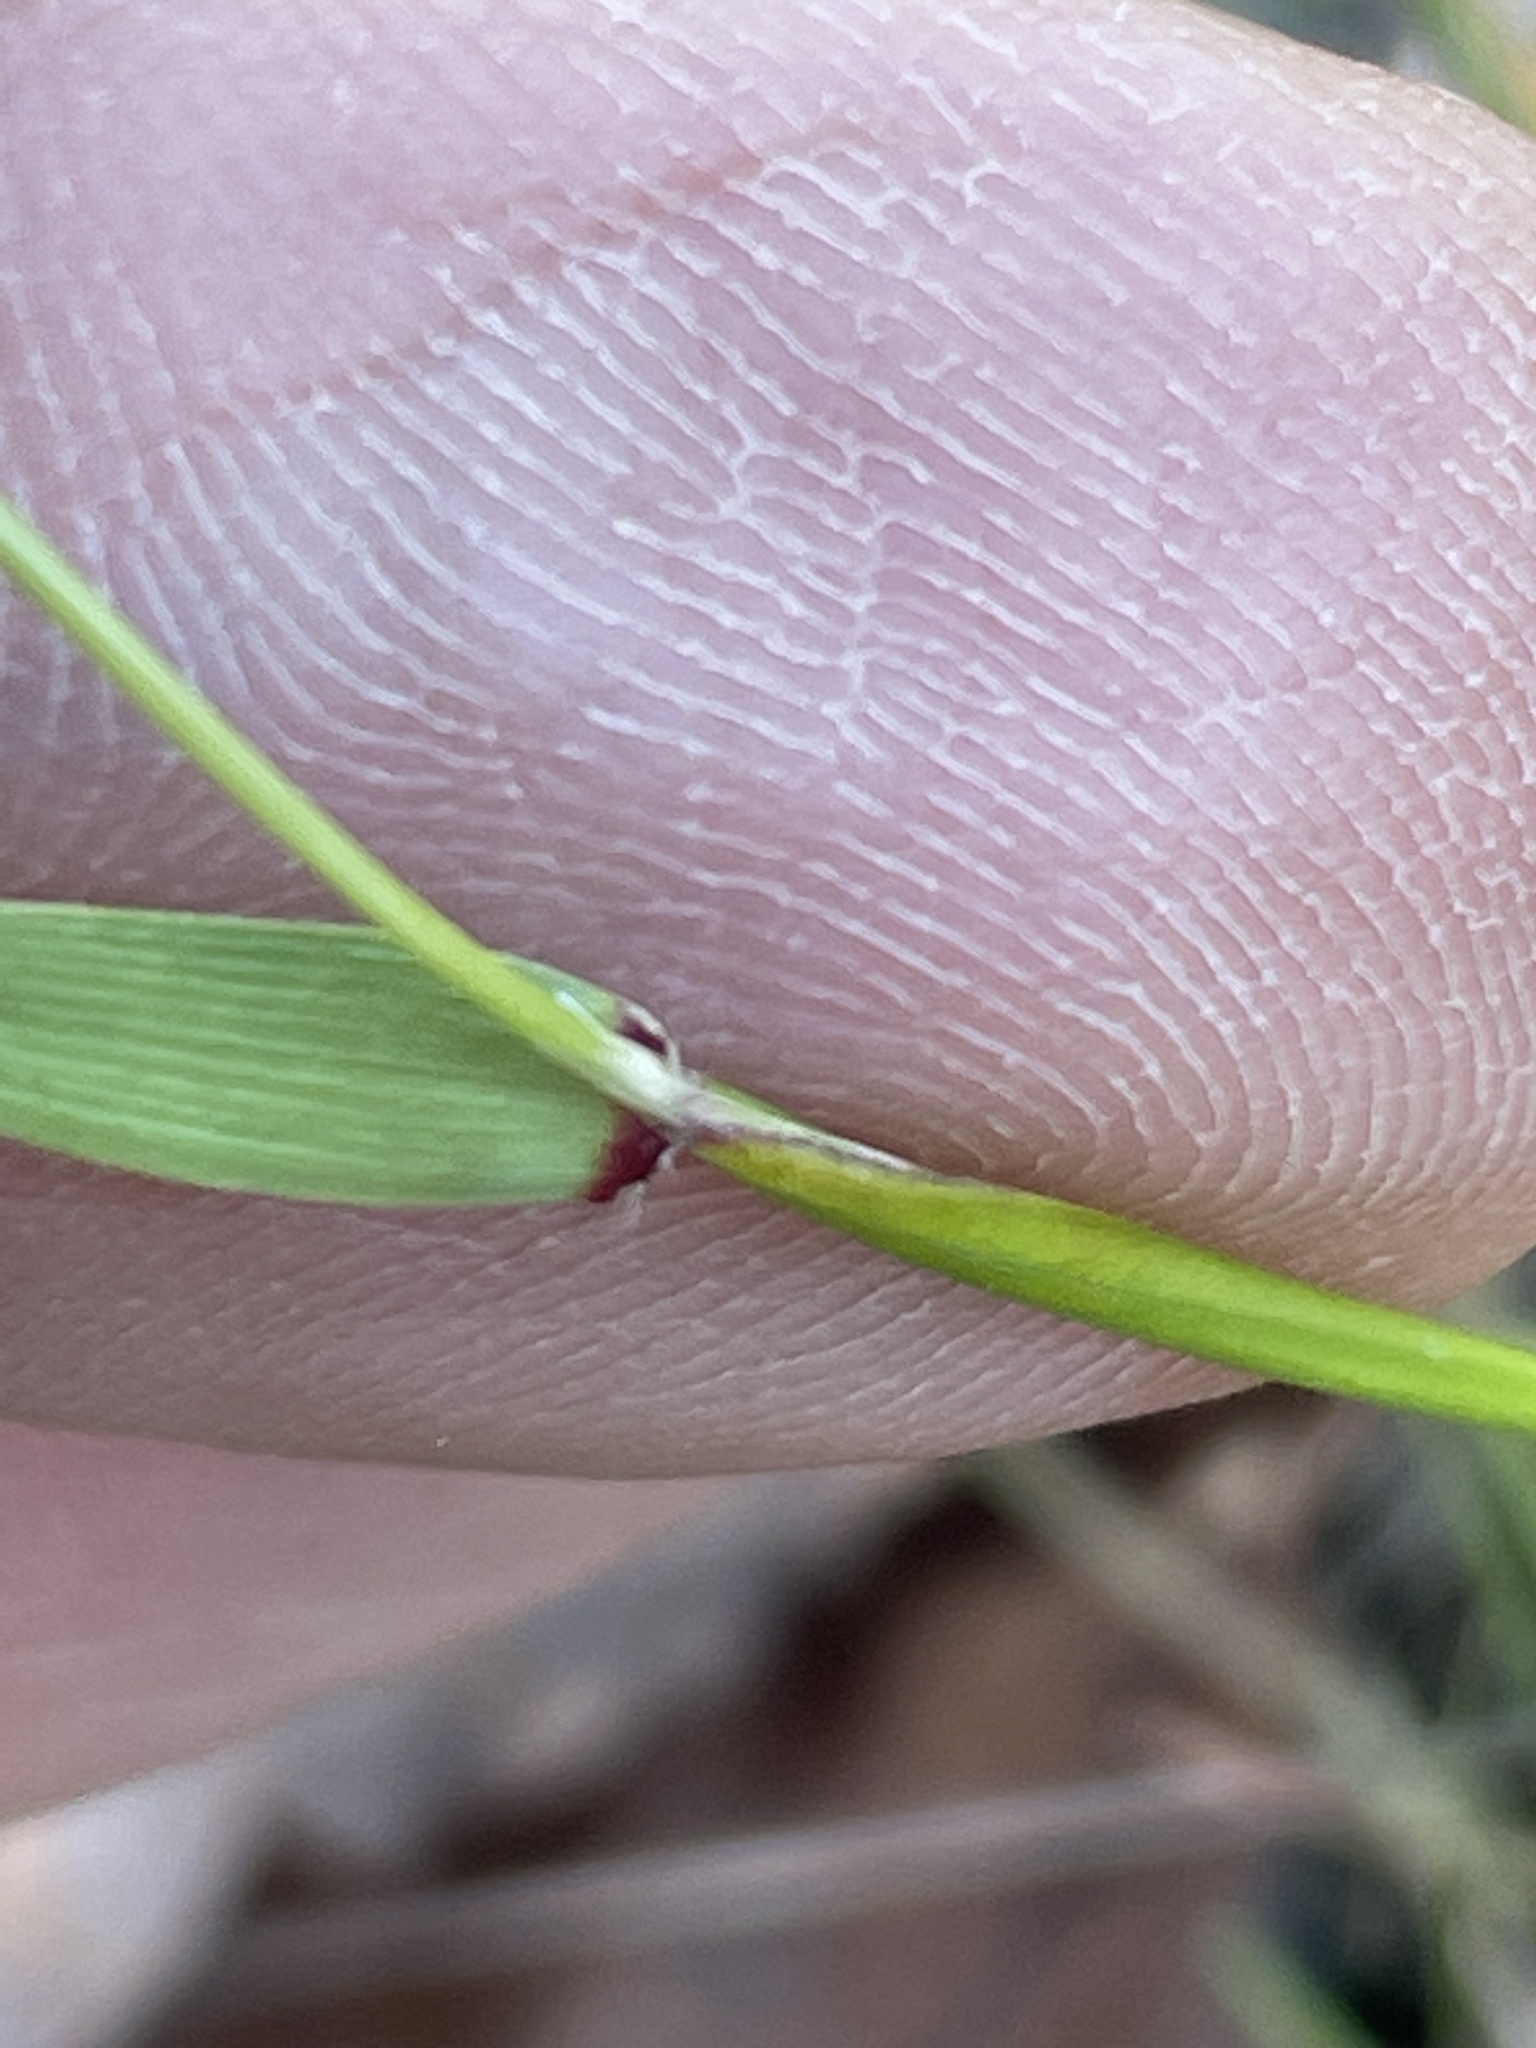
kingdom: Plantae
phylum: Tracheophyta
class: Liliopsida
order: Poales
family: Poaceae
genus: Anthoxanthum
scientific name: Anthoxanthum odoratum
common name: Sweet vernalgrass
